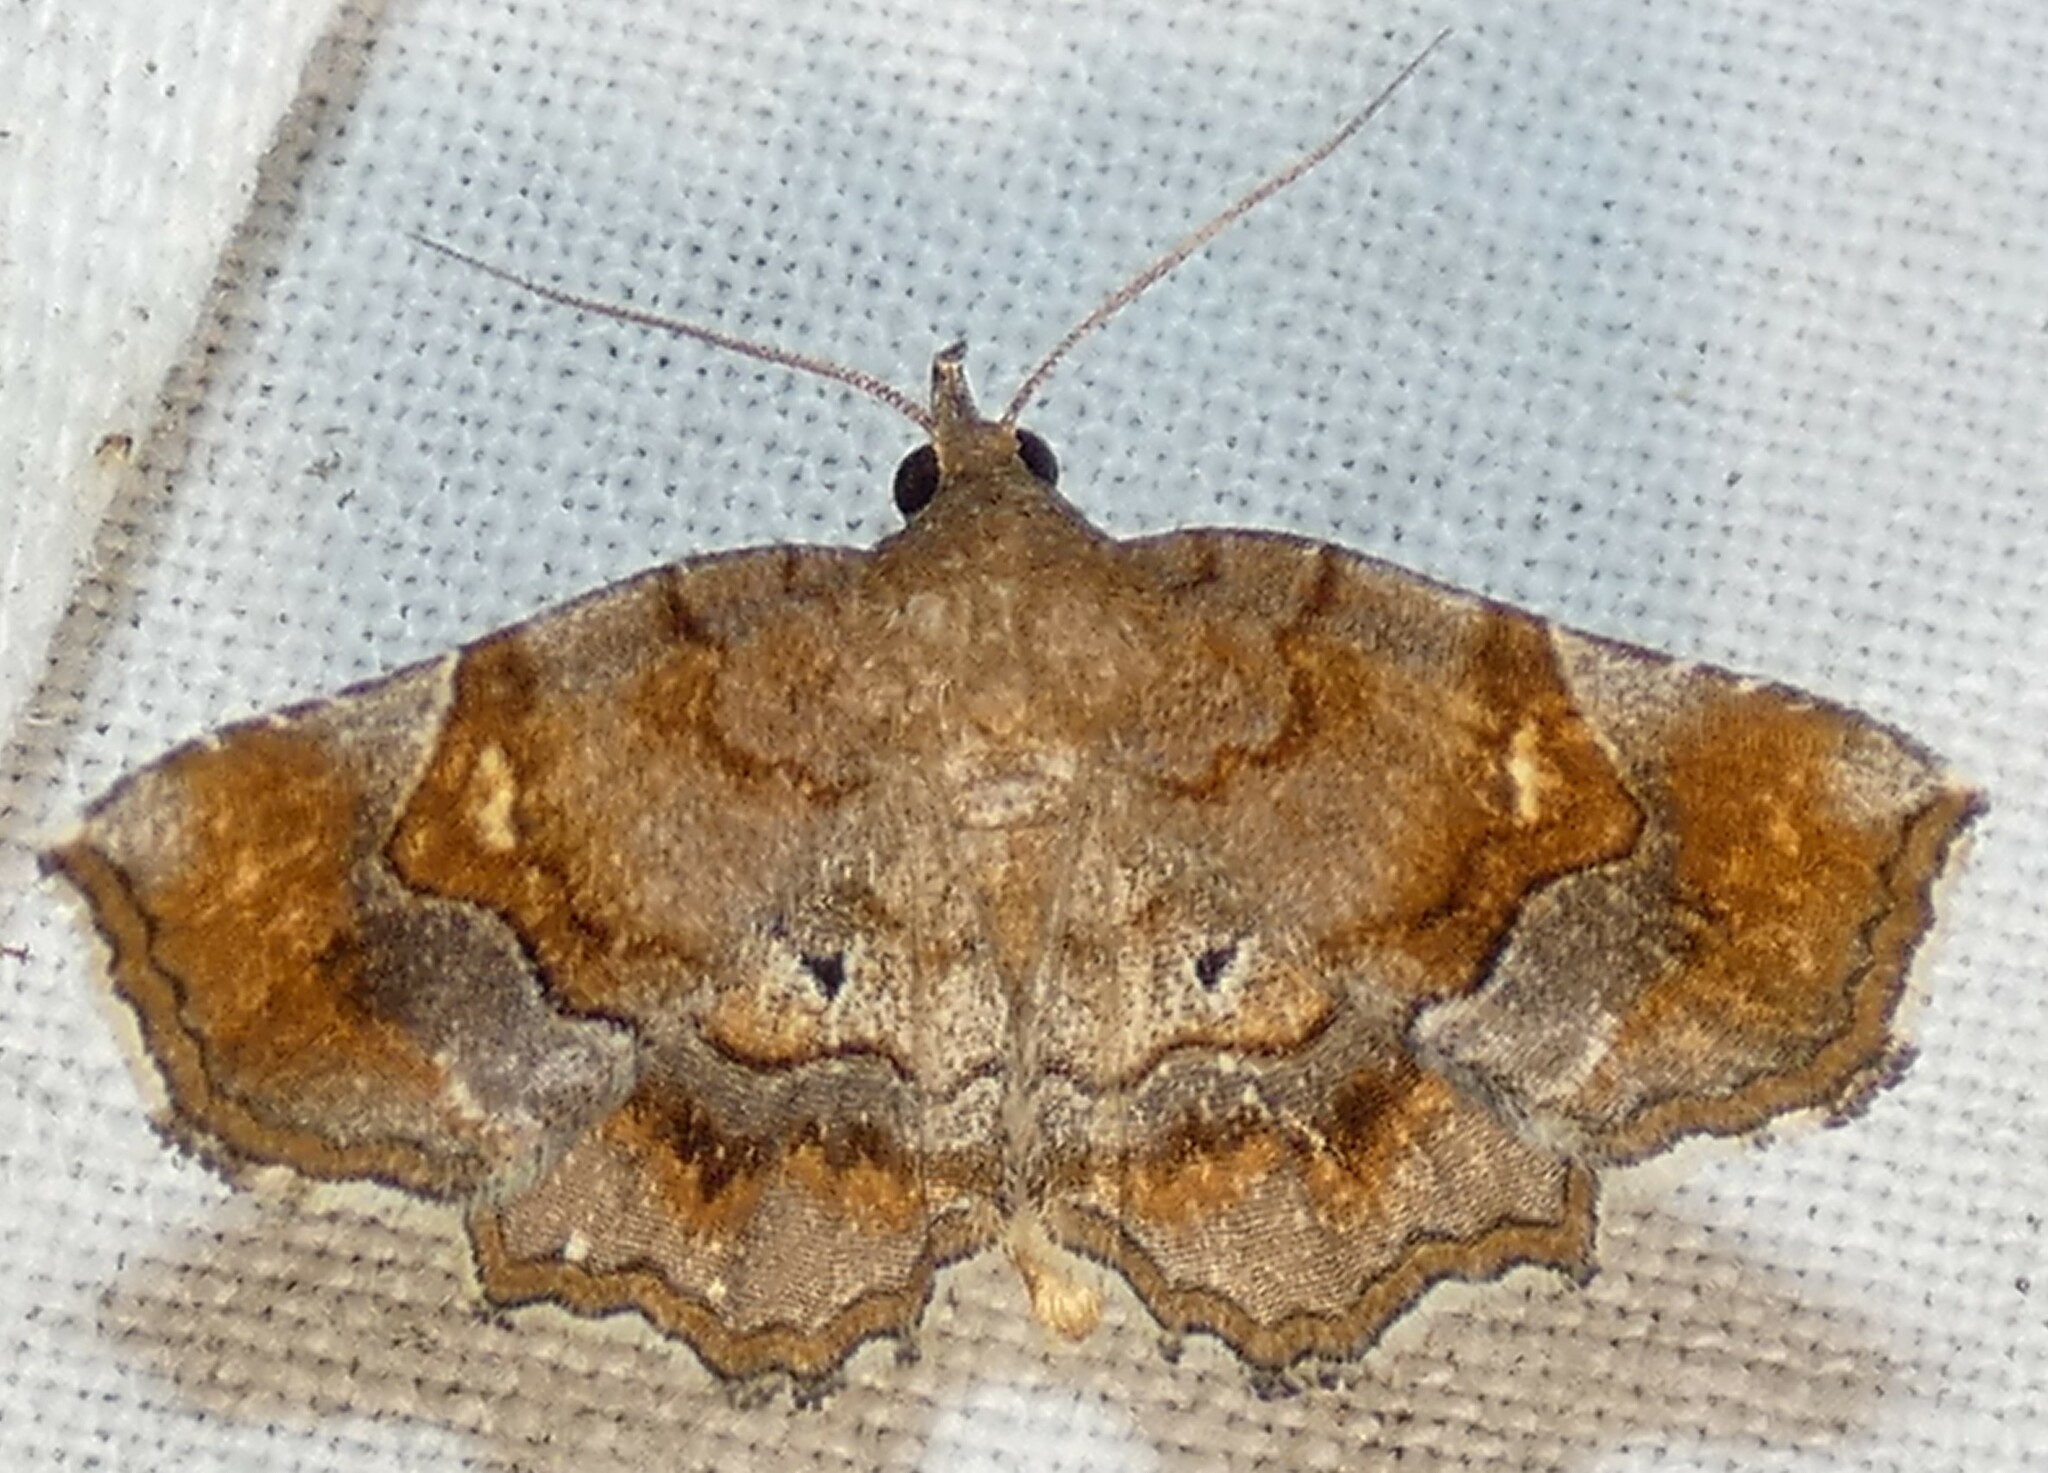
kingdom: Animalia
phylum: Arthropoda
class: Insecta
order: Lepidoptera
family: Erebidae
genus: Pangrapta
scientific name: Pangrapta decoralis
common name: Decorated owlet
